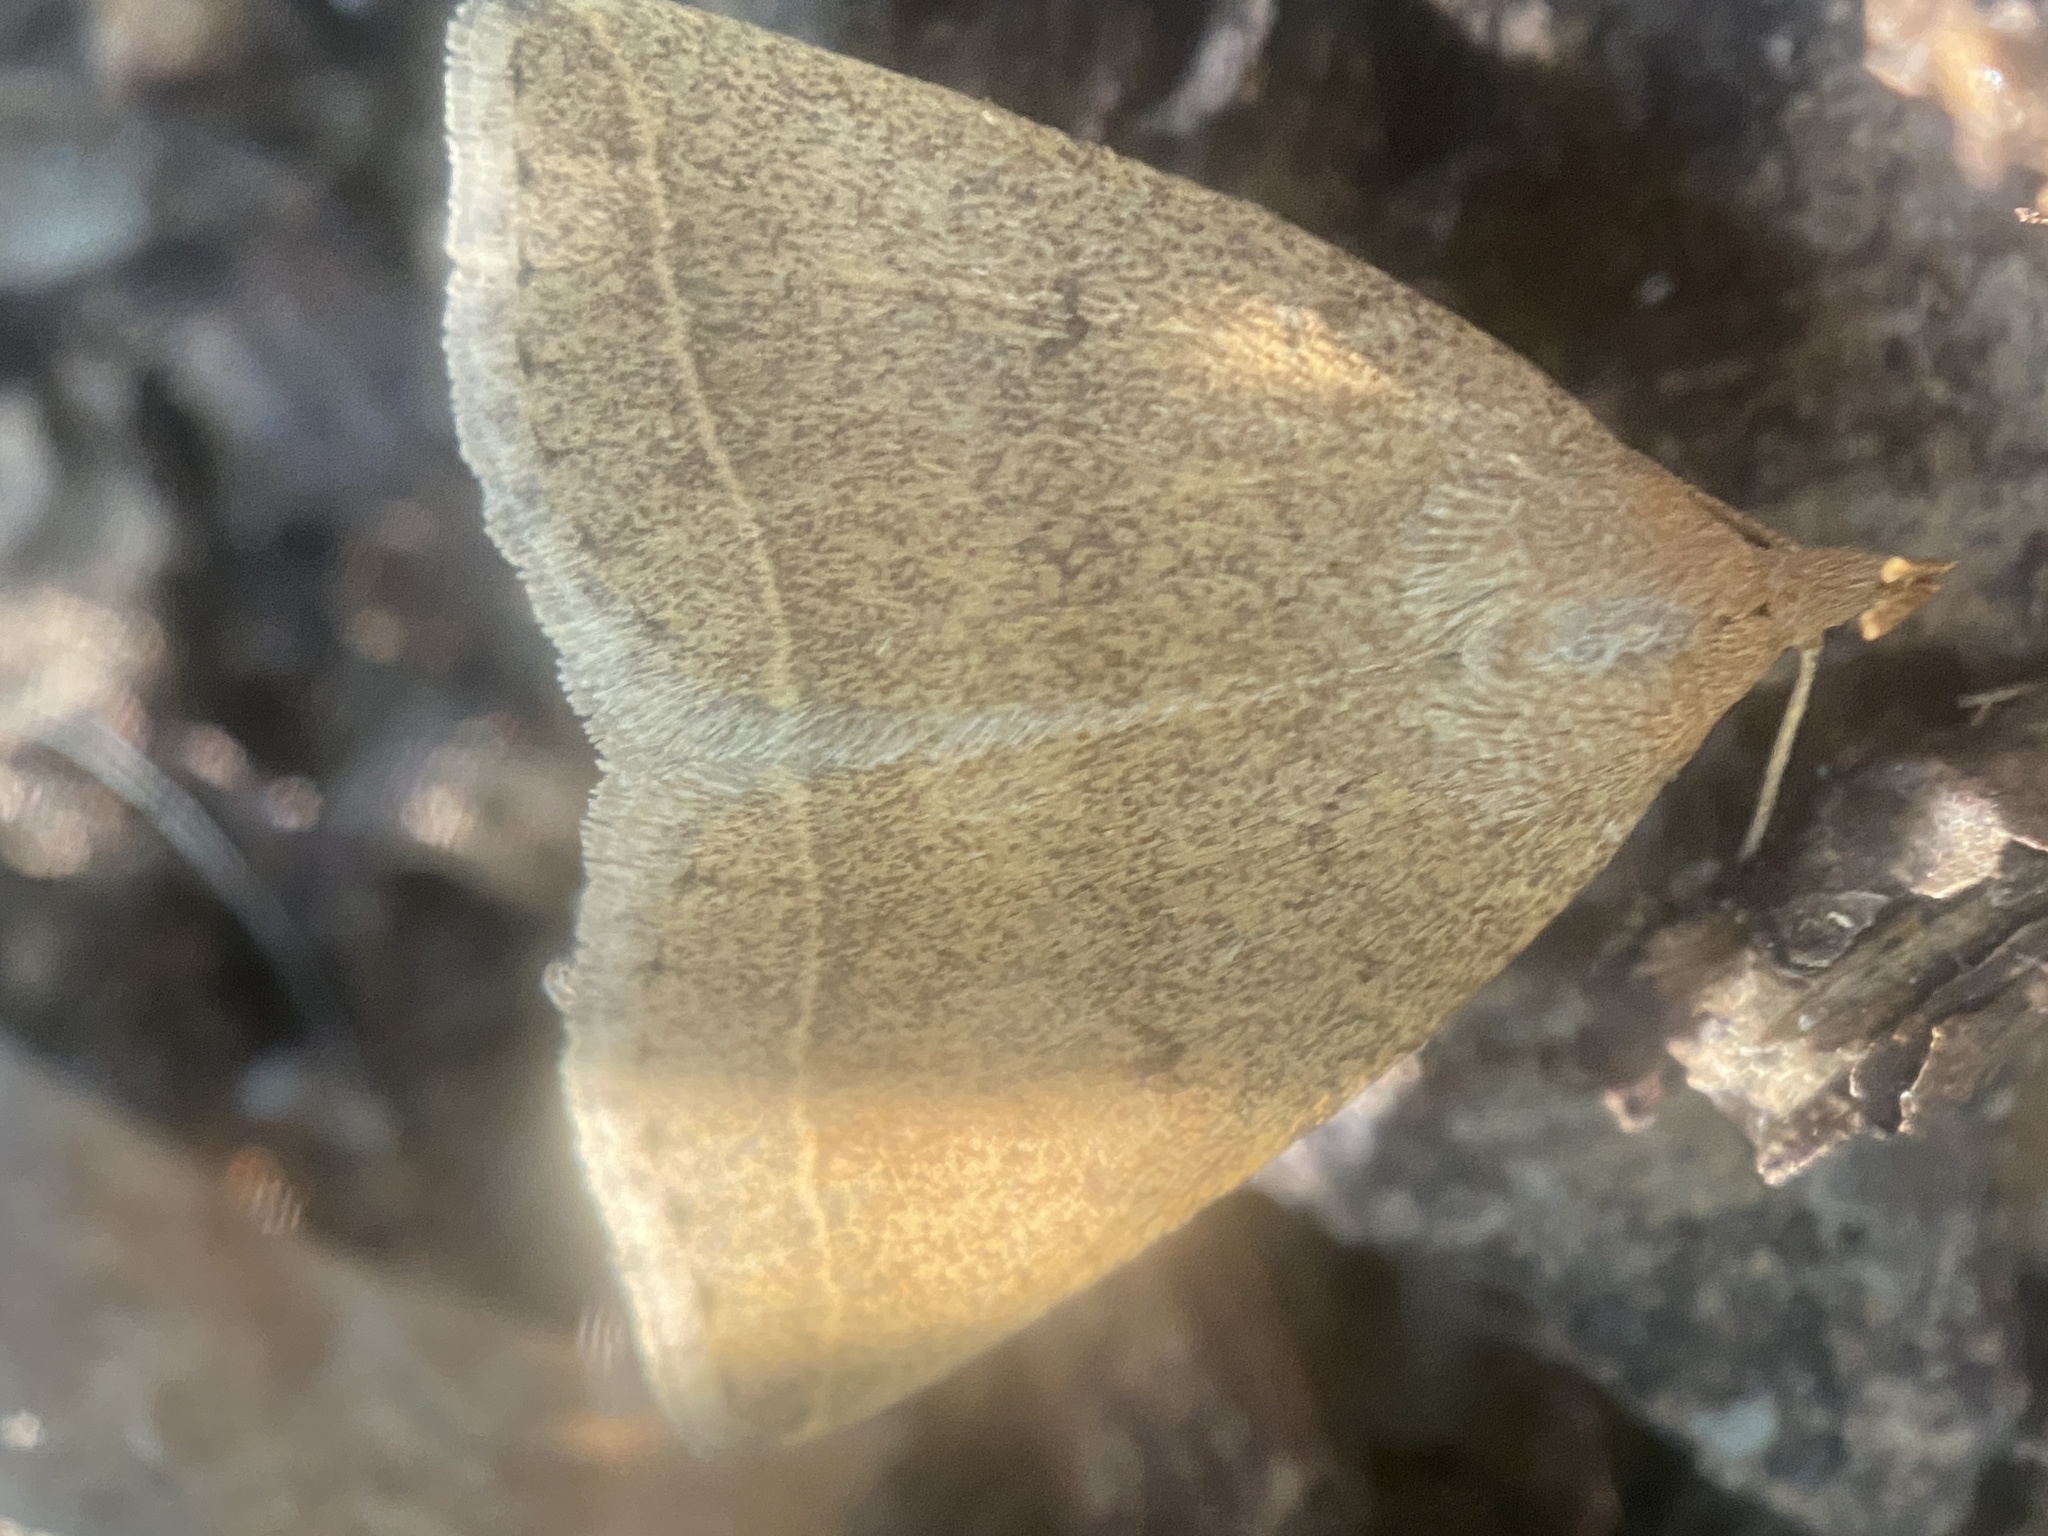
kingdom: Animalia
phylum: Arthropoda
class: Insecta
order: Lepidoptera
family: Erebidae
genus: Zanclognatha
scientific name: Zanclognatha marcidilinea
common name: Yellowish fan-foot
